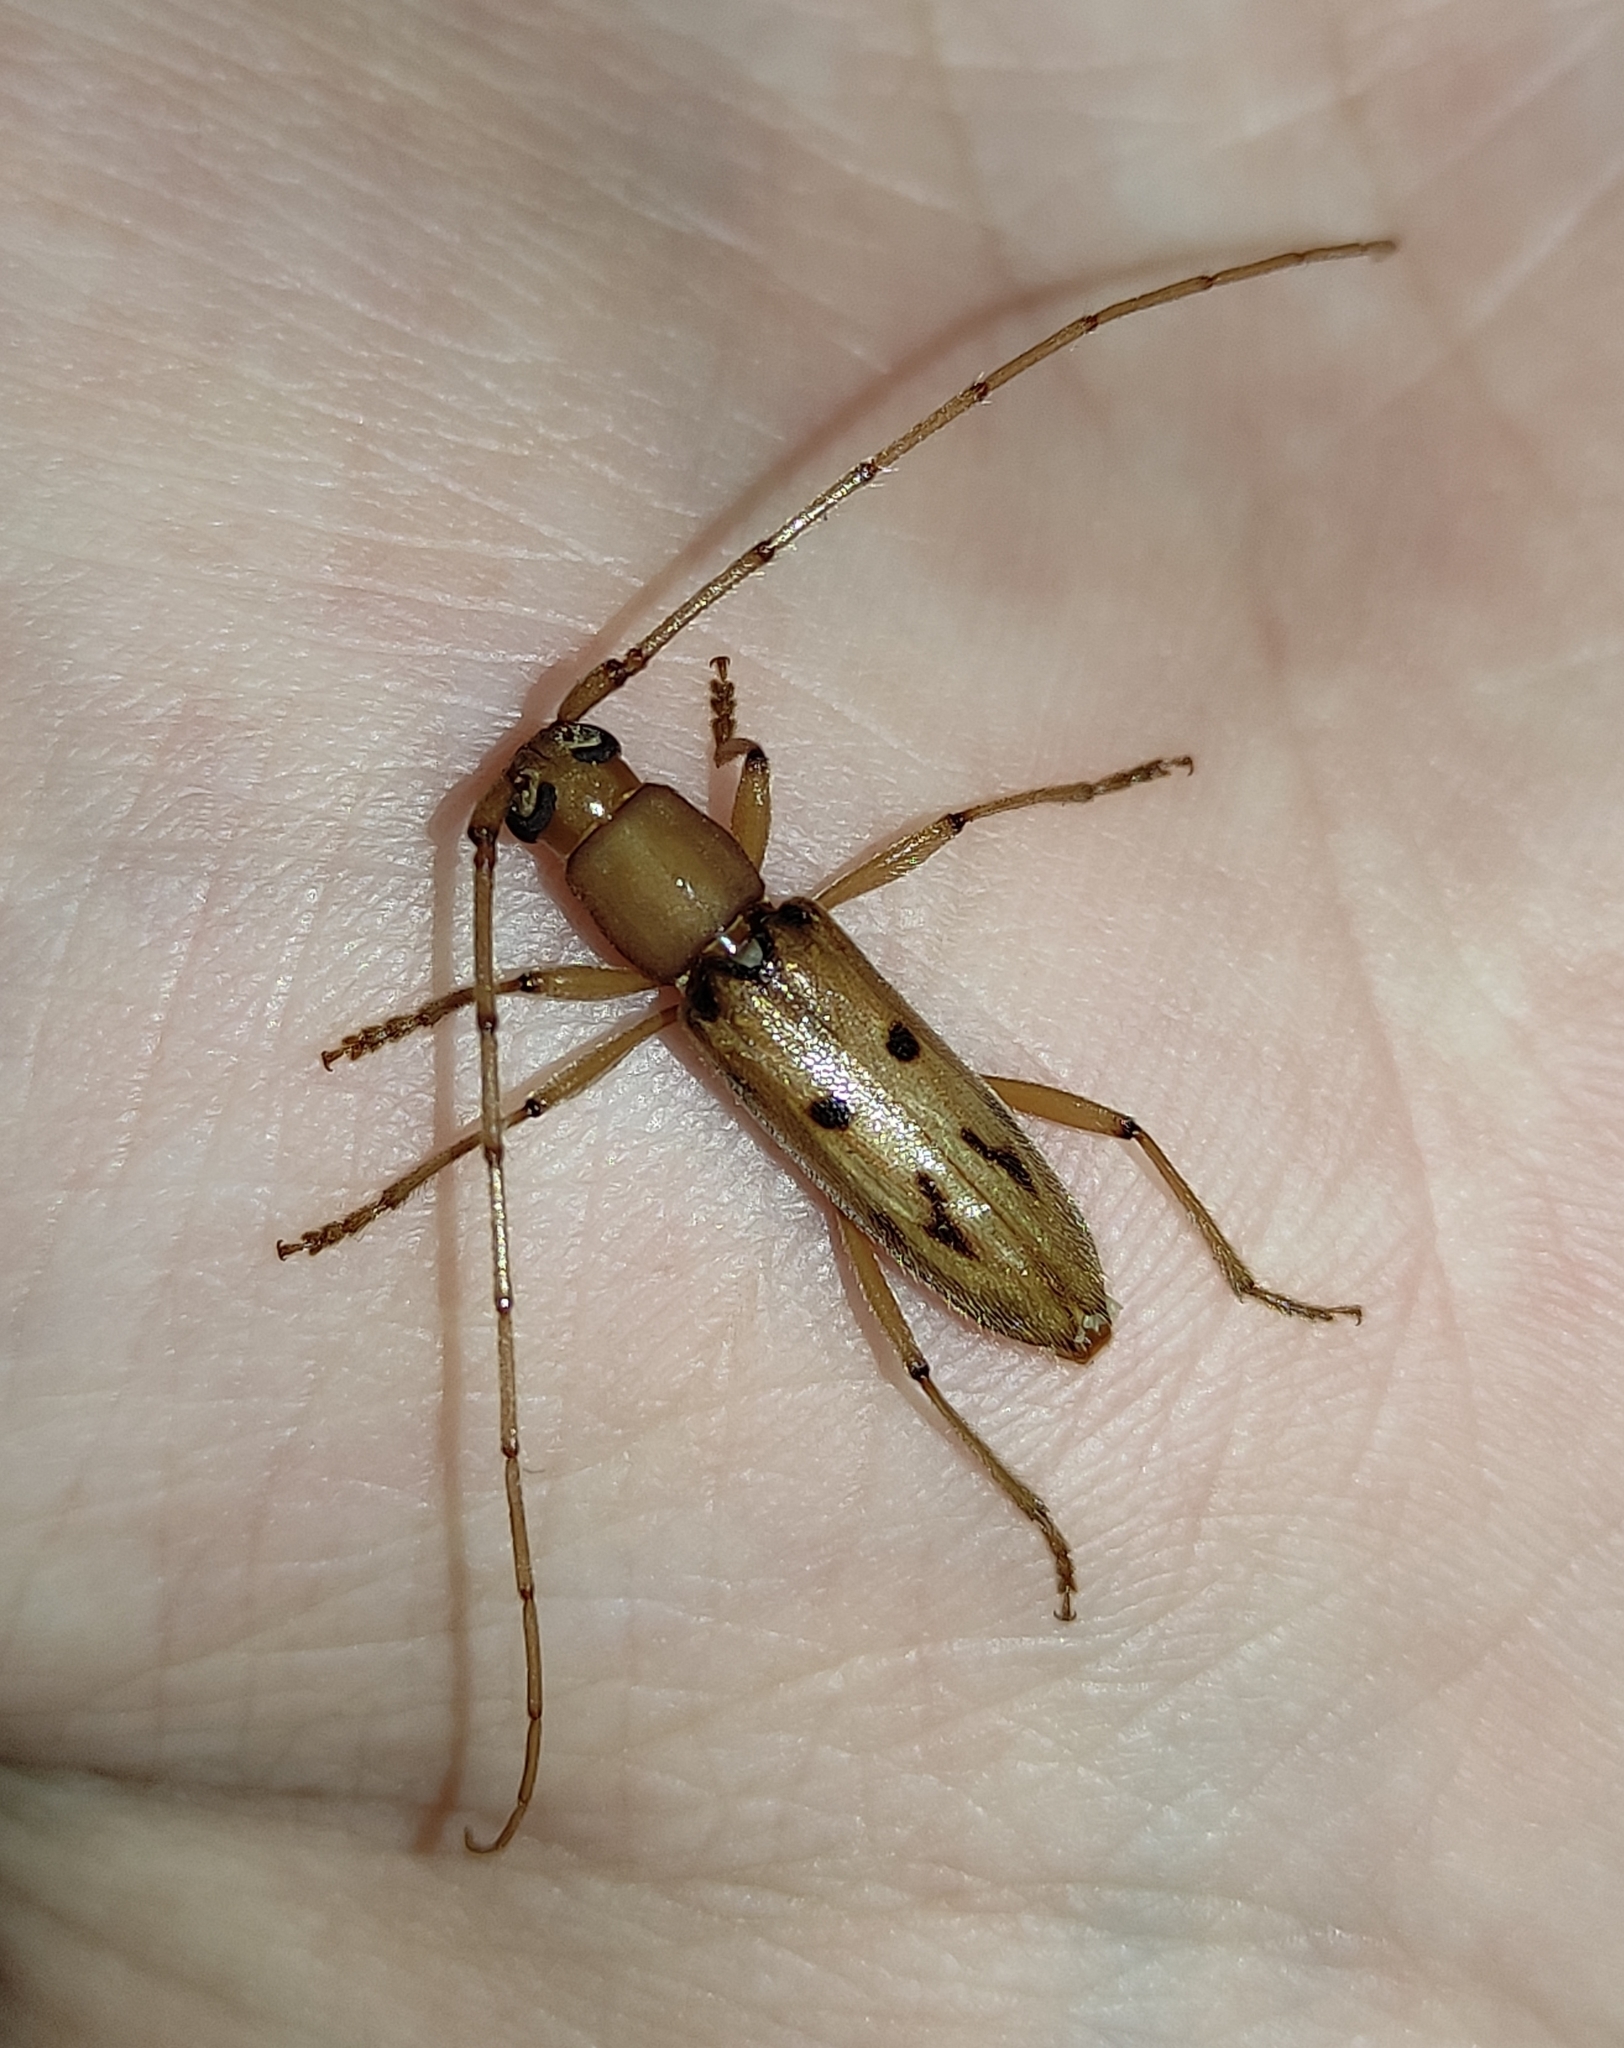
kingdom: Animalia
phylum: Arthropoda
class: Insecta
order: Coleoptera
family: Cerambycidae
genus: Achryson
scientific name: Achryson surinamum
